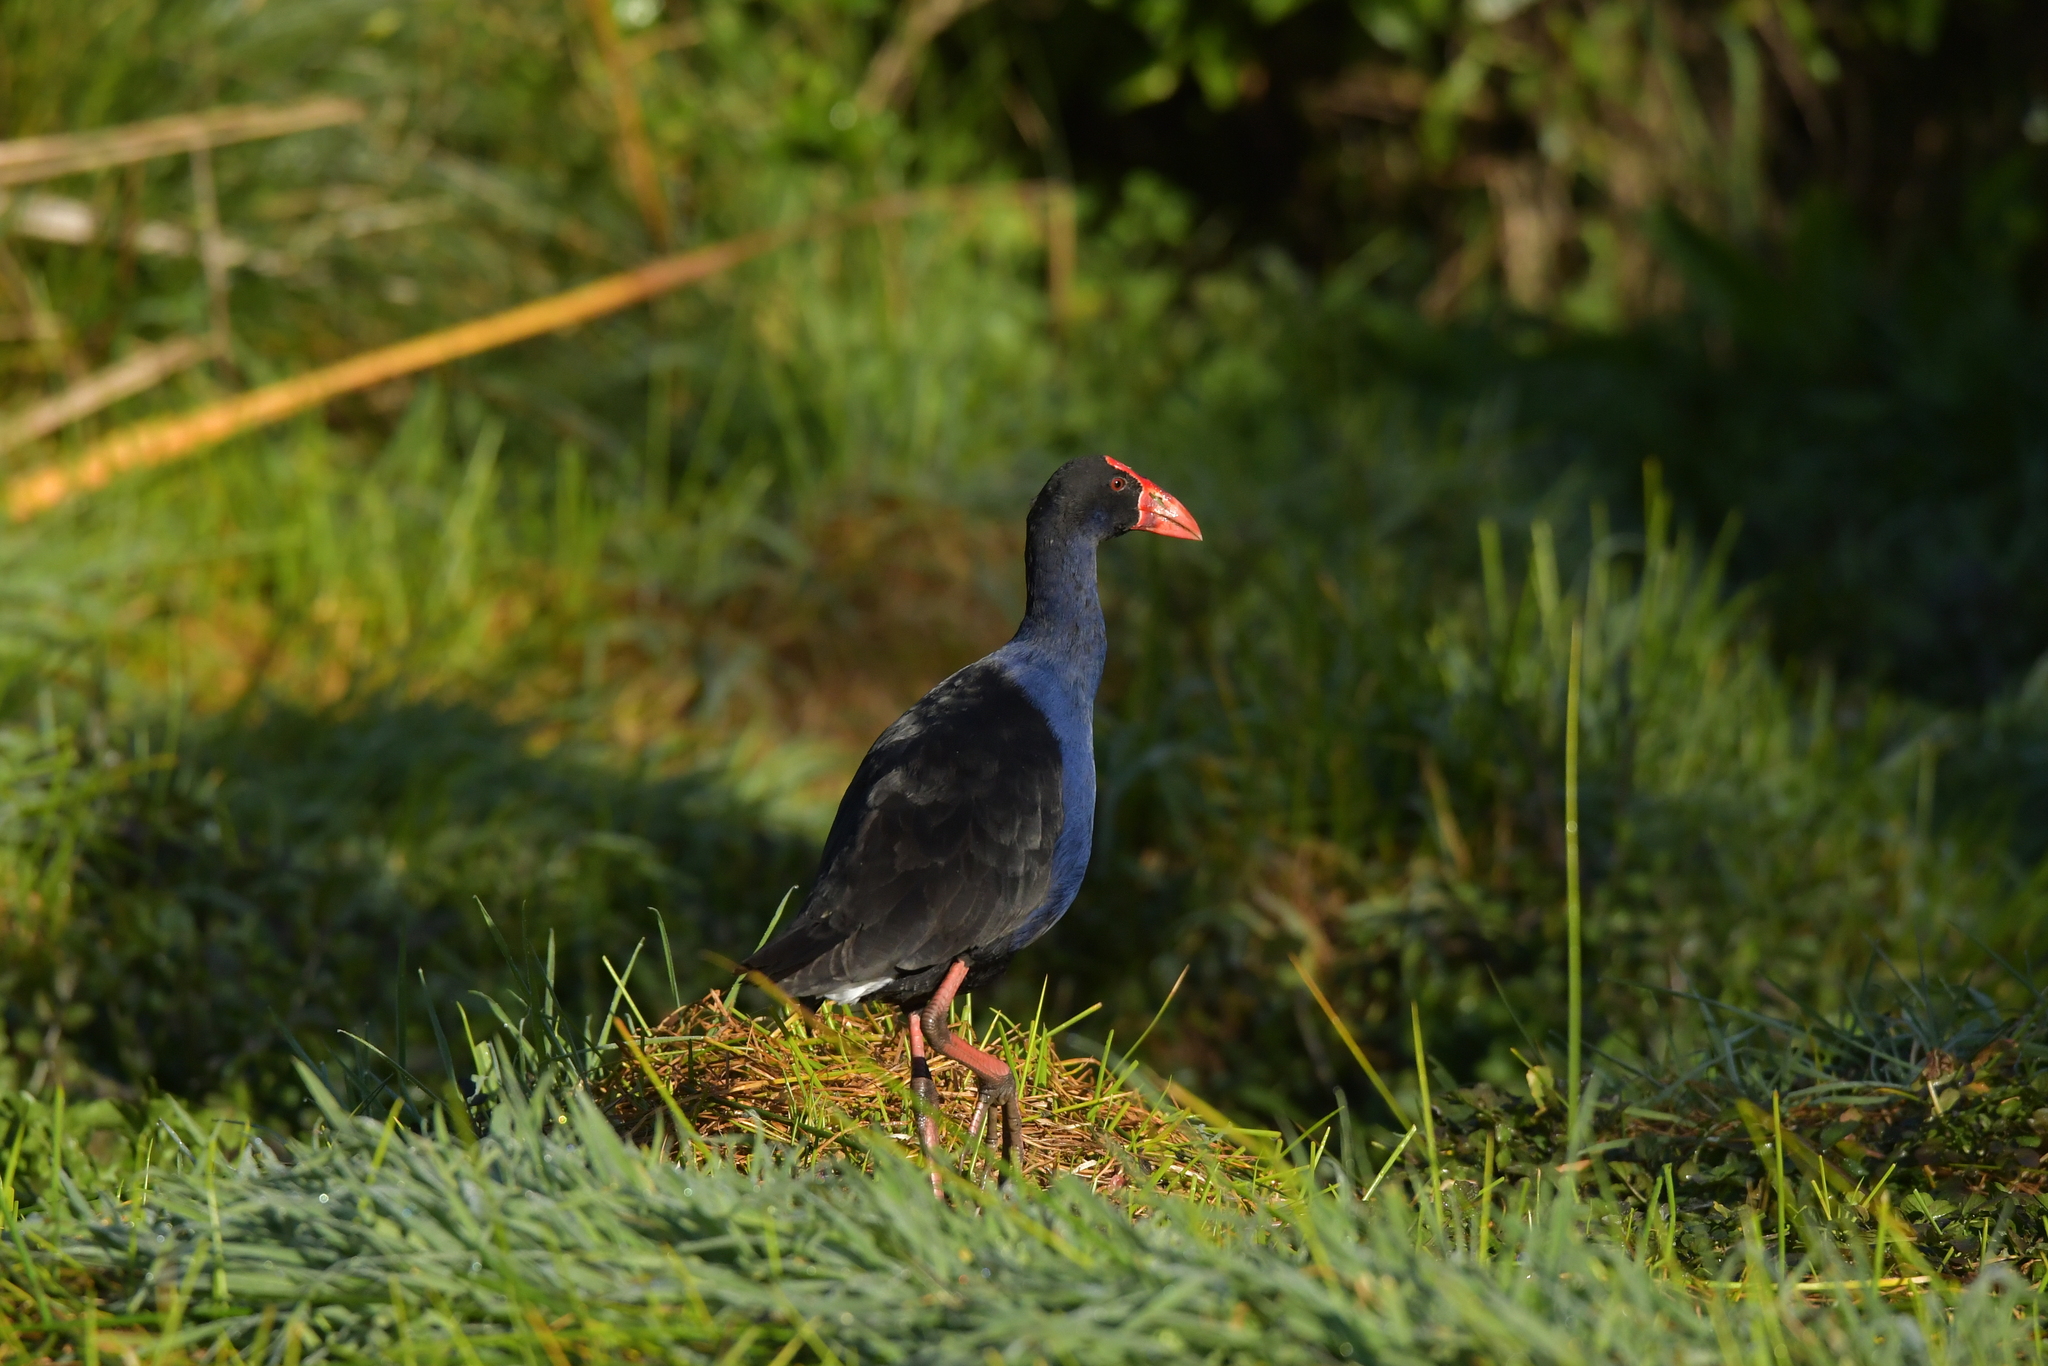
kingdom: Animalia
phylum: Chordata
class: Aves
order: Gruiformes
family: Rallidae
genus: Porphyrio
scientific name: Porphyrio melanotus
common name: Australasian swamphen
